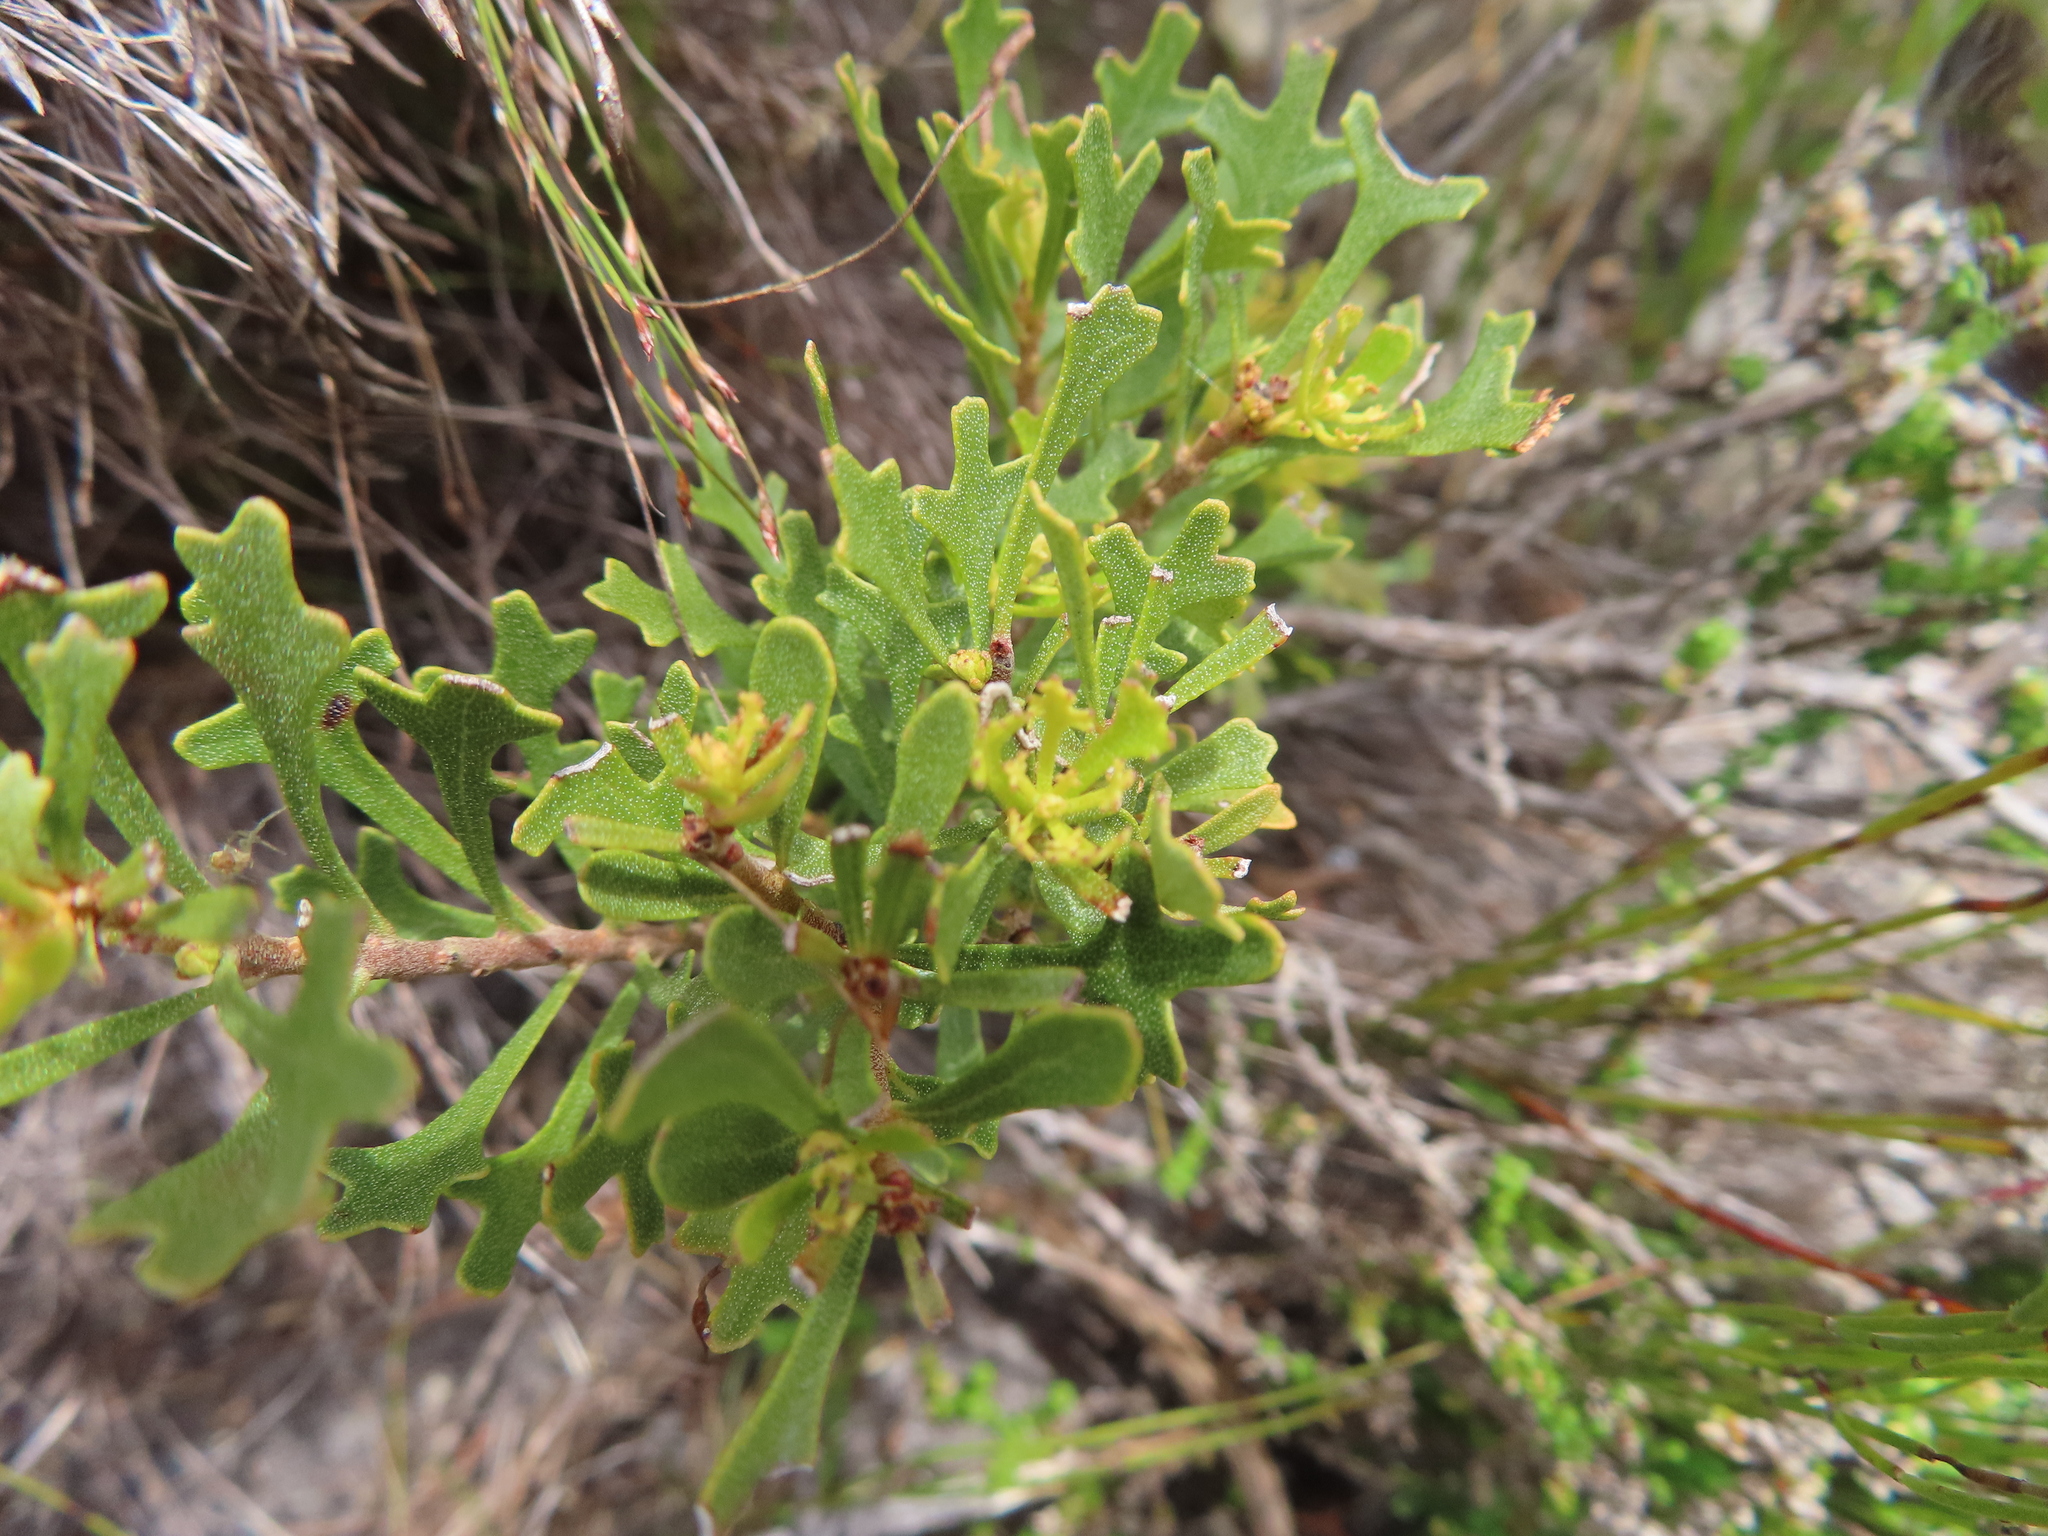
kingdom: Plantae
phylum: Tracheophyta
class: Magnoliopsida
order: Fagales
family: Myricaceae
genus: Morella
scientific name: Morella quercifolia
